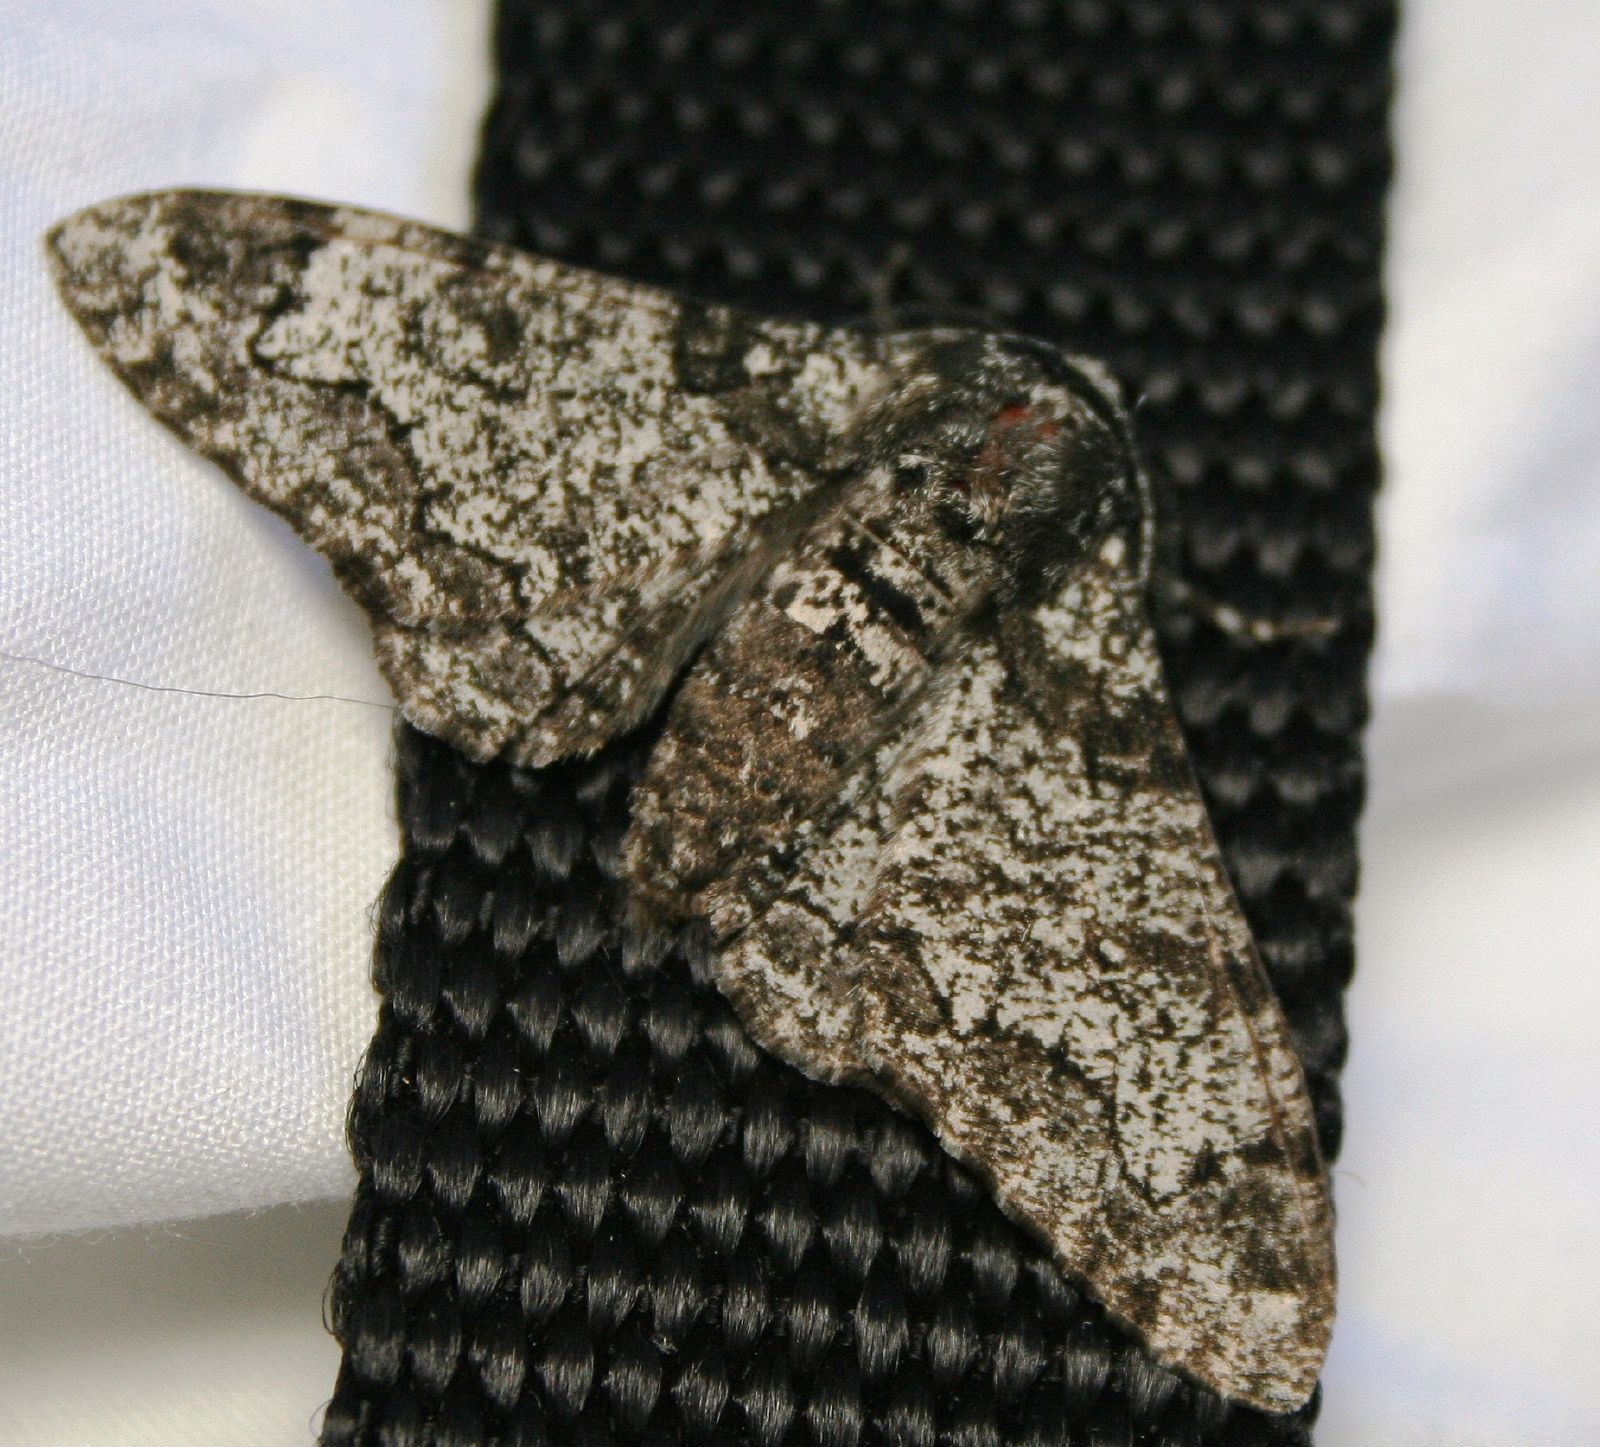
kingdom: Animalia
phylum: Arthropoda
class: Insecta
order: Lepidoptera
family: Geometridae
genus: Biston
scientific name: Biston betularia
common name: Peppered moth
